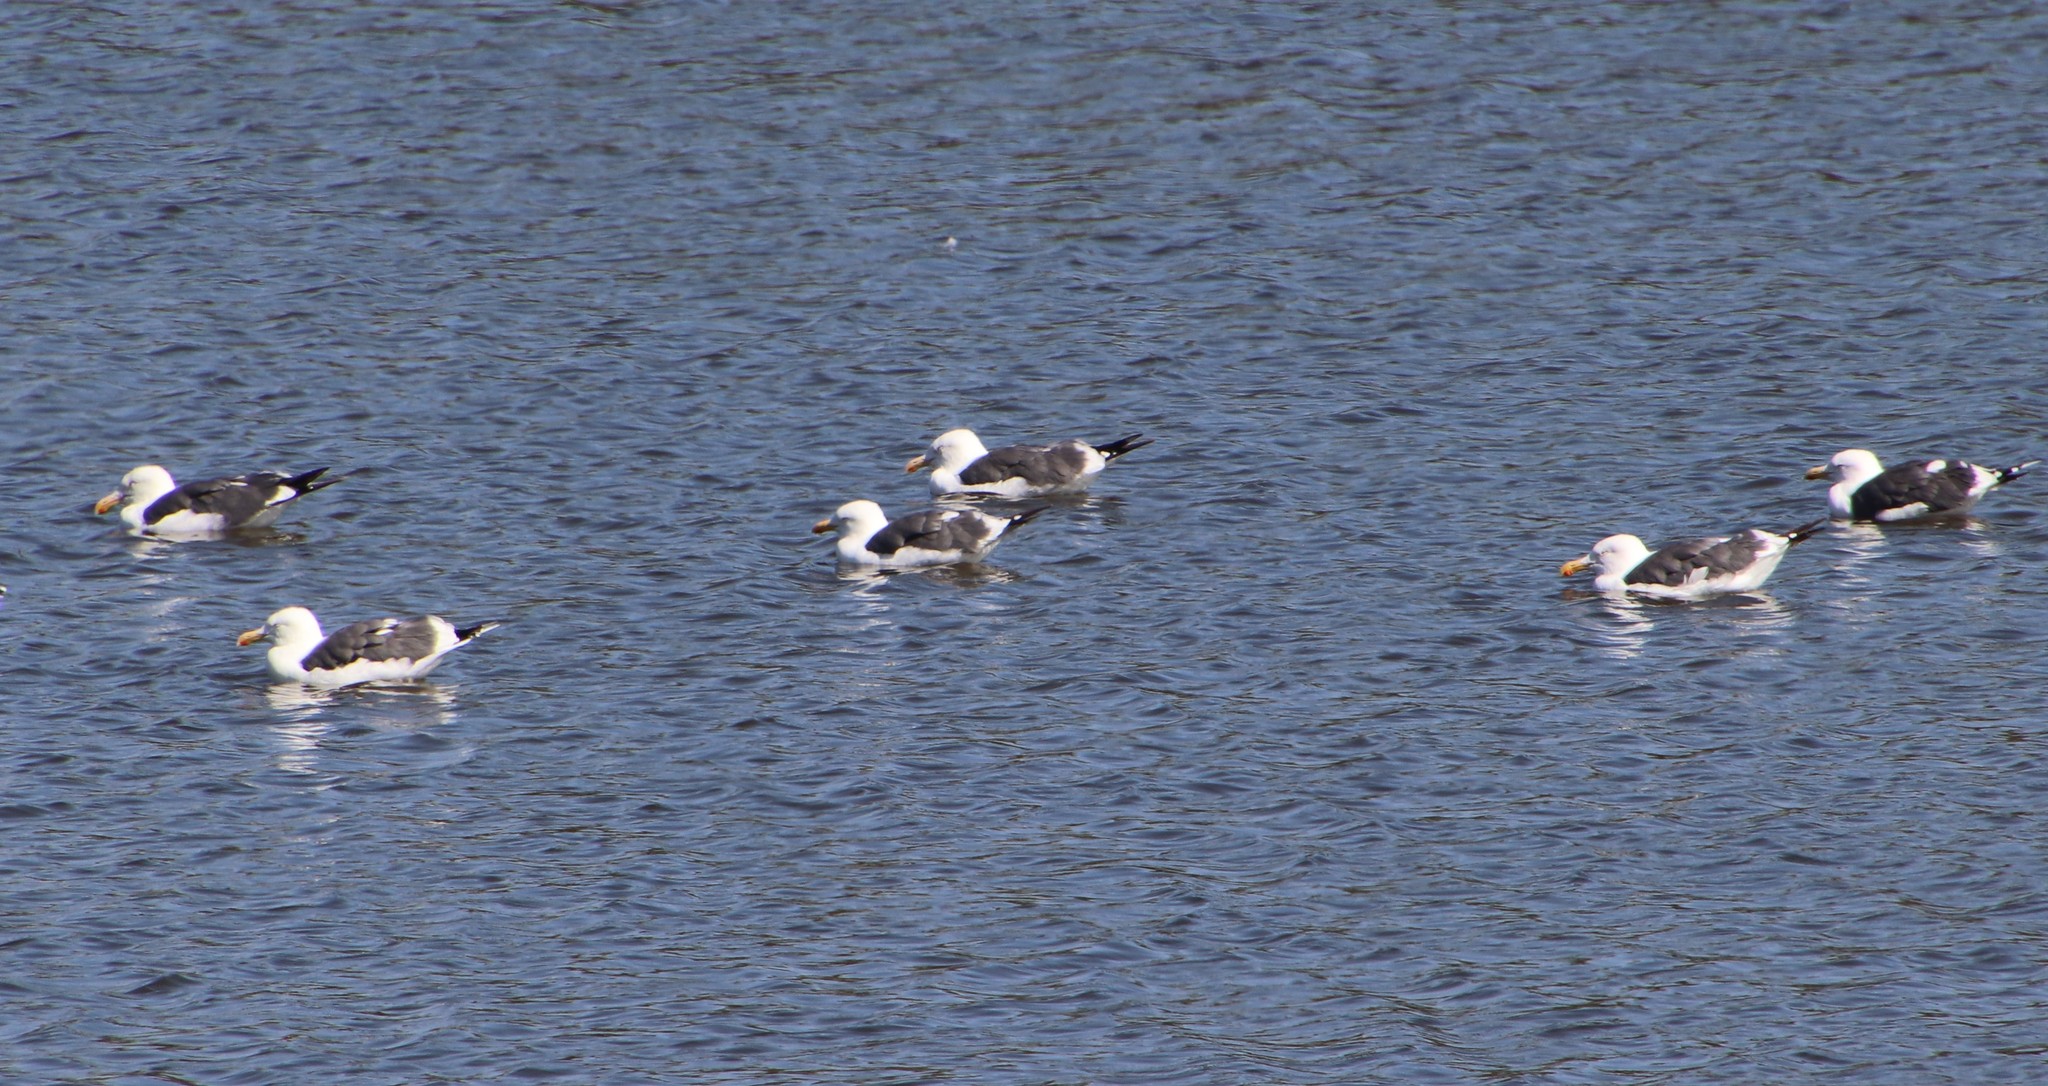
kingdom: Animalia
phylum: Chordata
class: Aves
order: Charadriiformes
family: Laridae
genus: Larus
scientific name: Larus occidentalis
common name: Western gull
